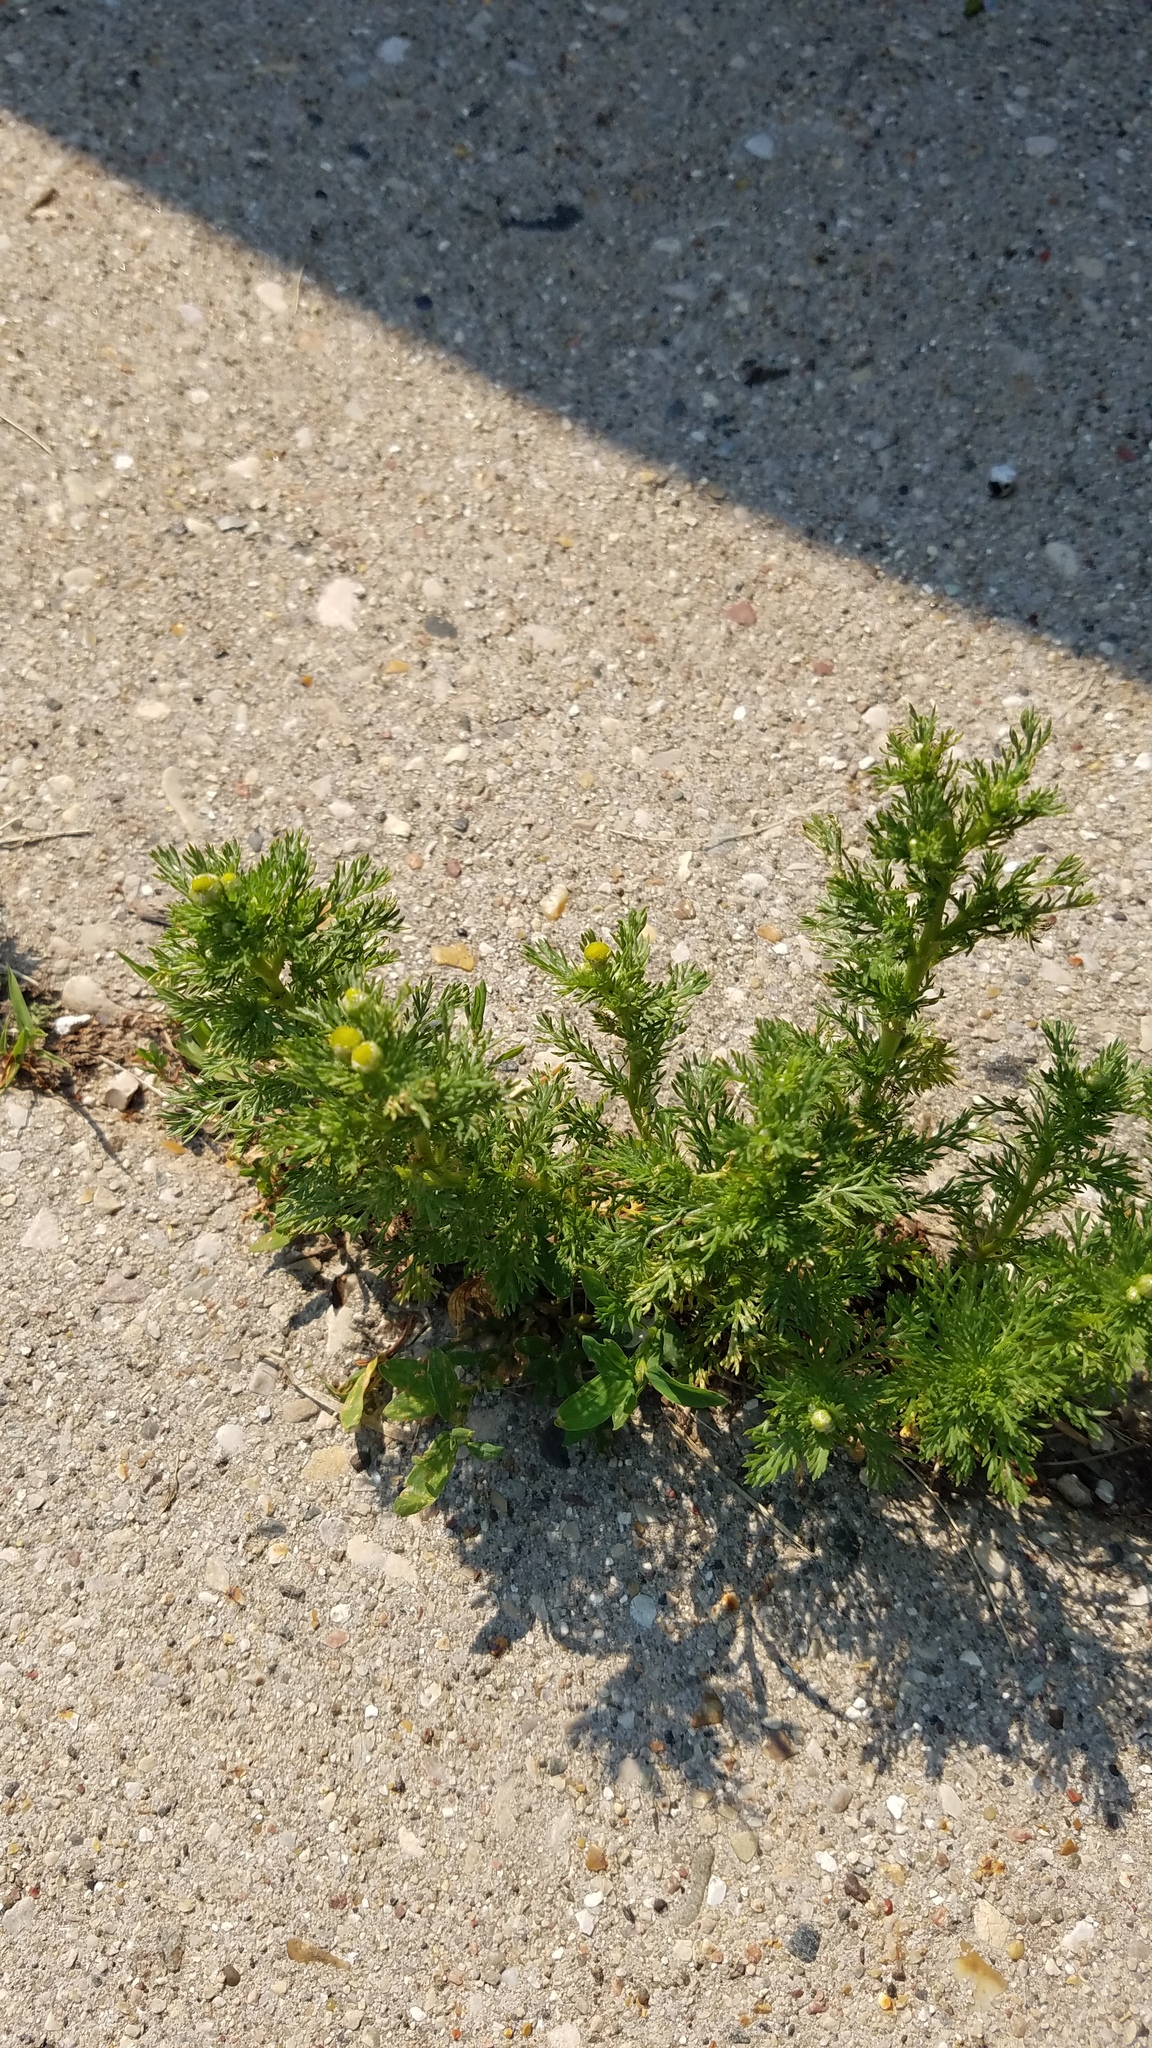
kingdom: Plantae
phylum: Tracheophyta
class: Magnoliopsida
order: Asterales
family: Asteraceae
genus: Matricaria
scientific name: Matricaria discoidea
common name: Disc mayweed
